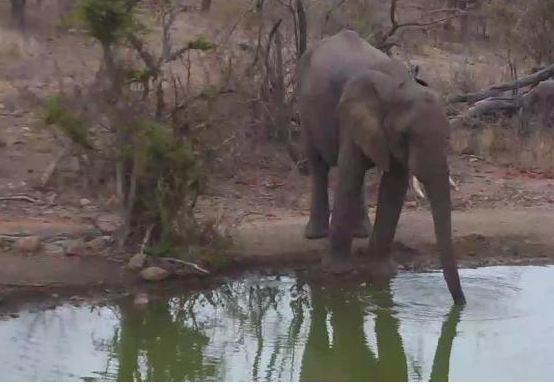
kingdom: Animalia
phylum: Chordata
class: Mammalia
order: Proboscidea
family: Elephantidae
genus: Loxodonta
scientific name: Loxodonta africana
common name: African elephant
